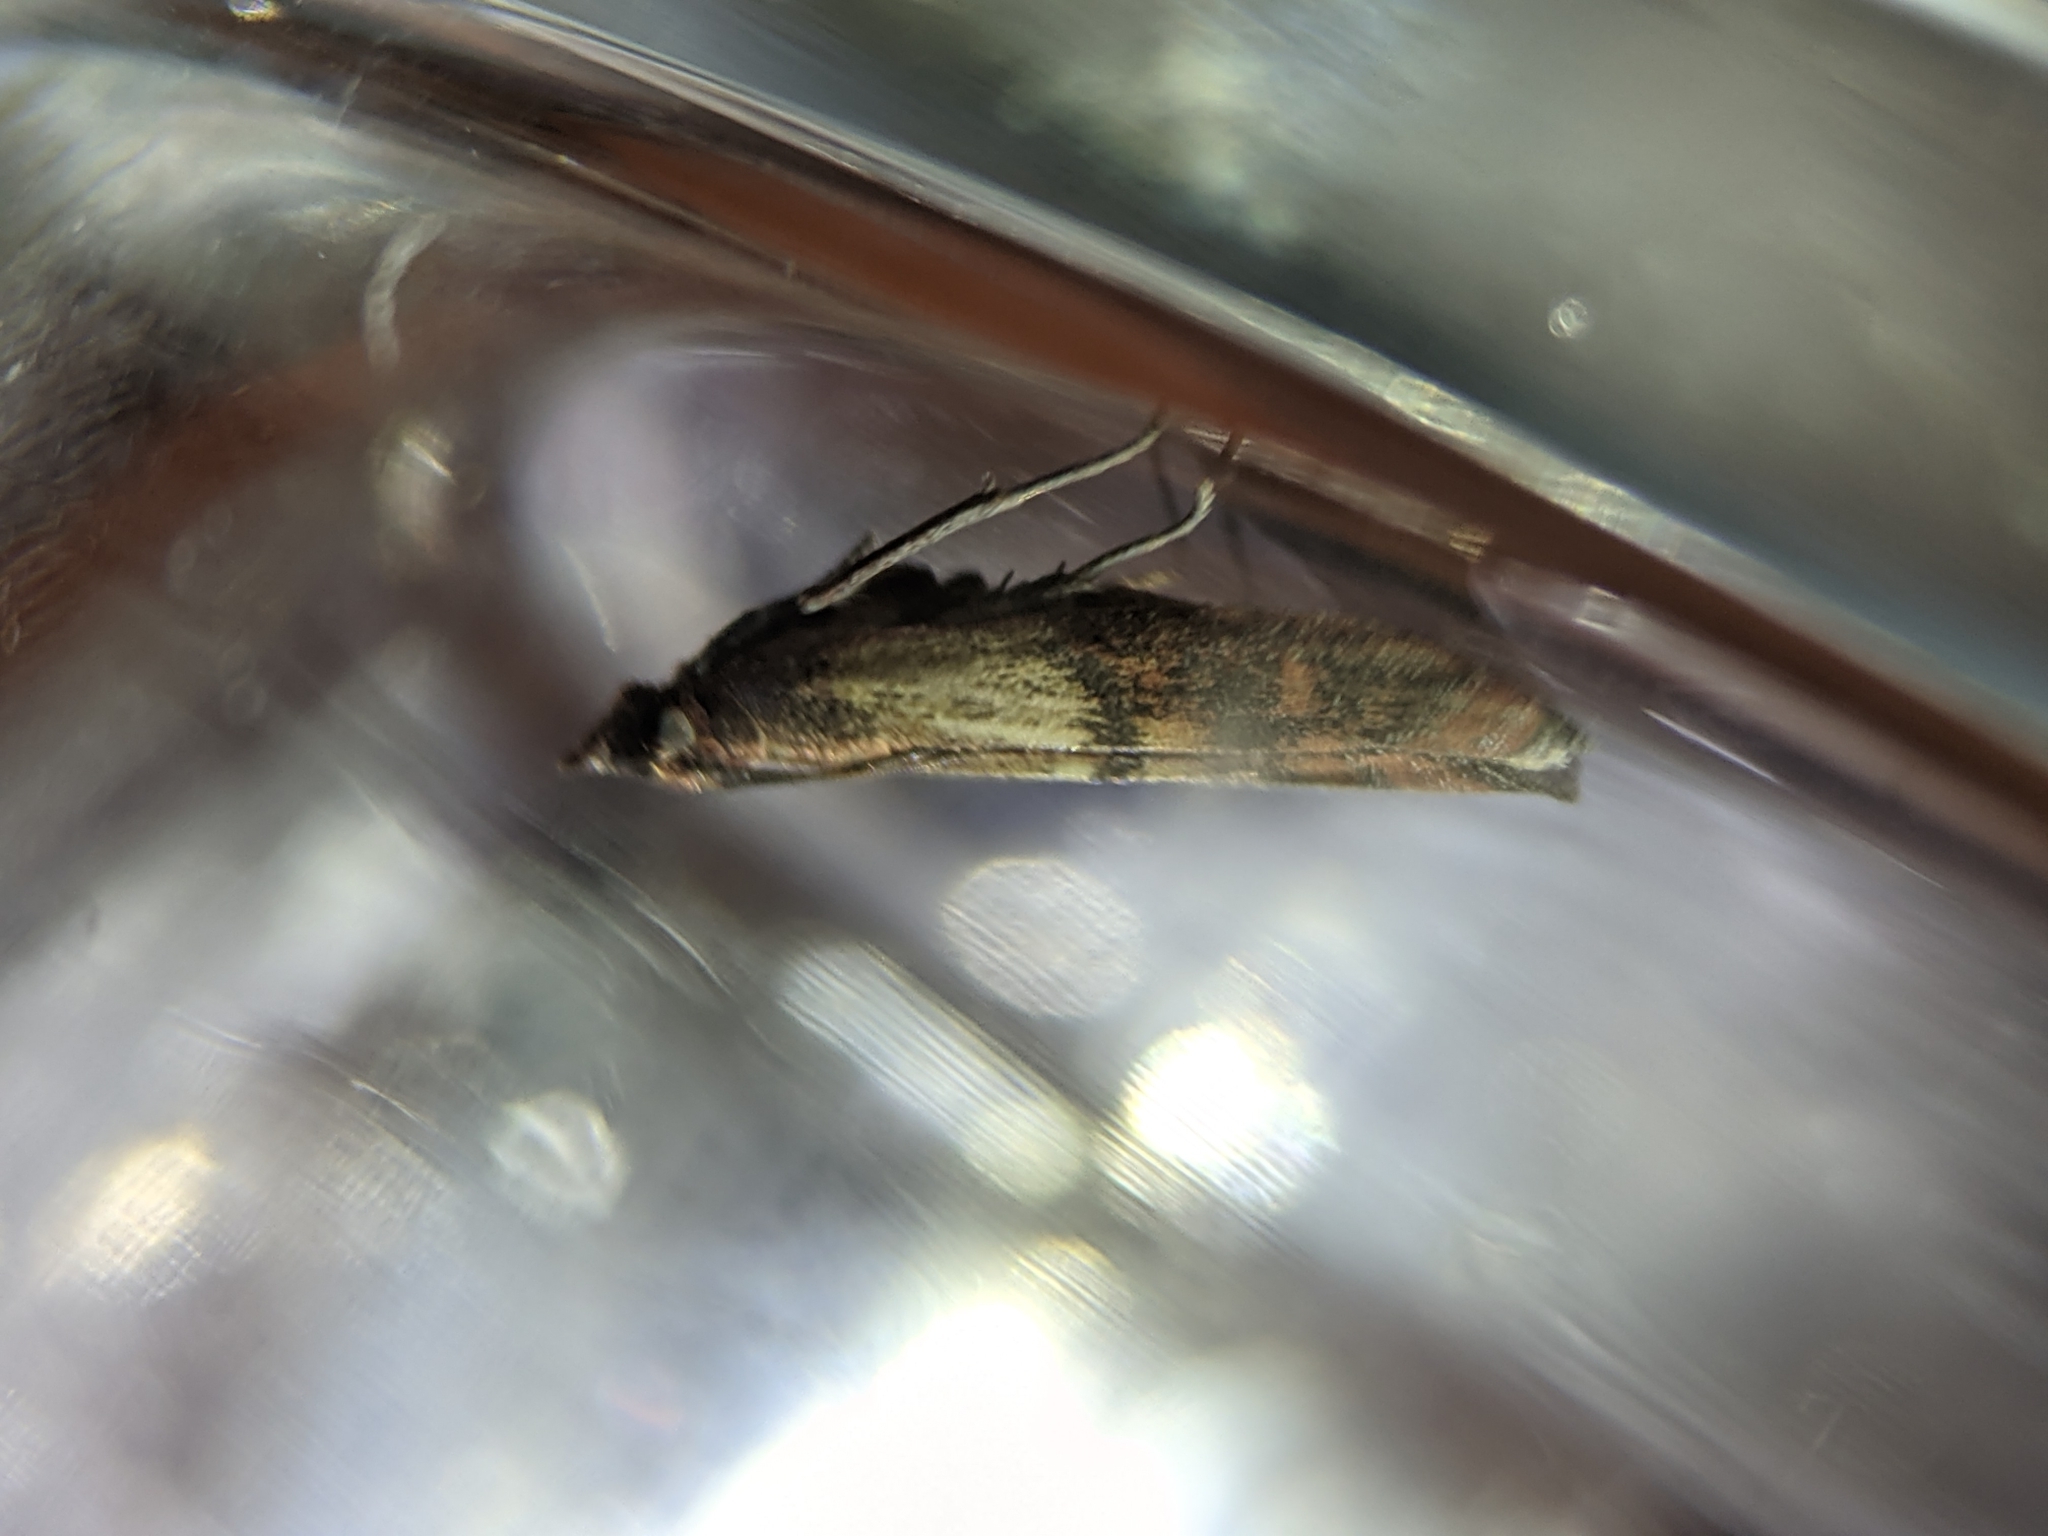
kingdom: Animalia
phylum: Arthropoda
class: Insecta
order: Lepidoptera
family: Pyralidae
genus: Plodia
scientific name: Plodia interpunctella
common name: Indian meal moth
